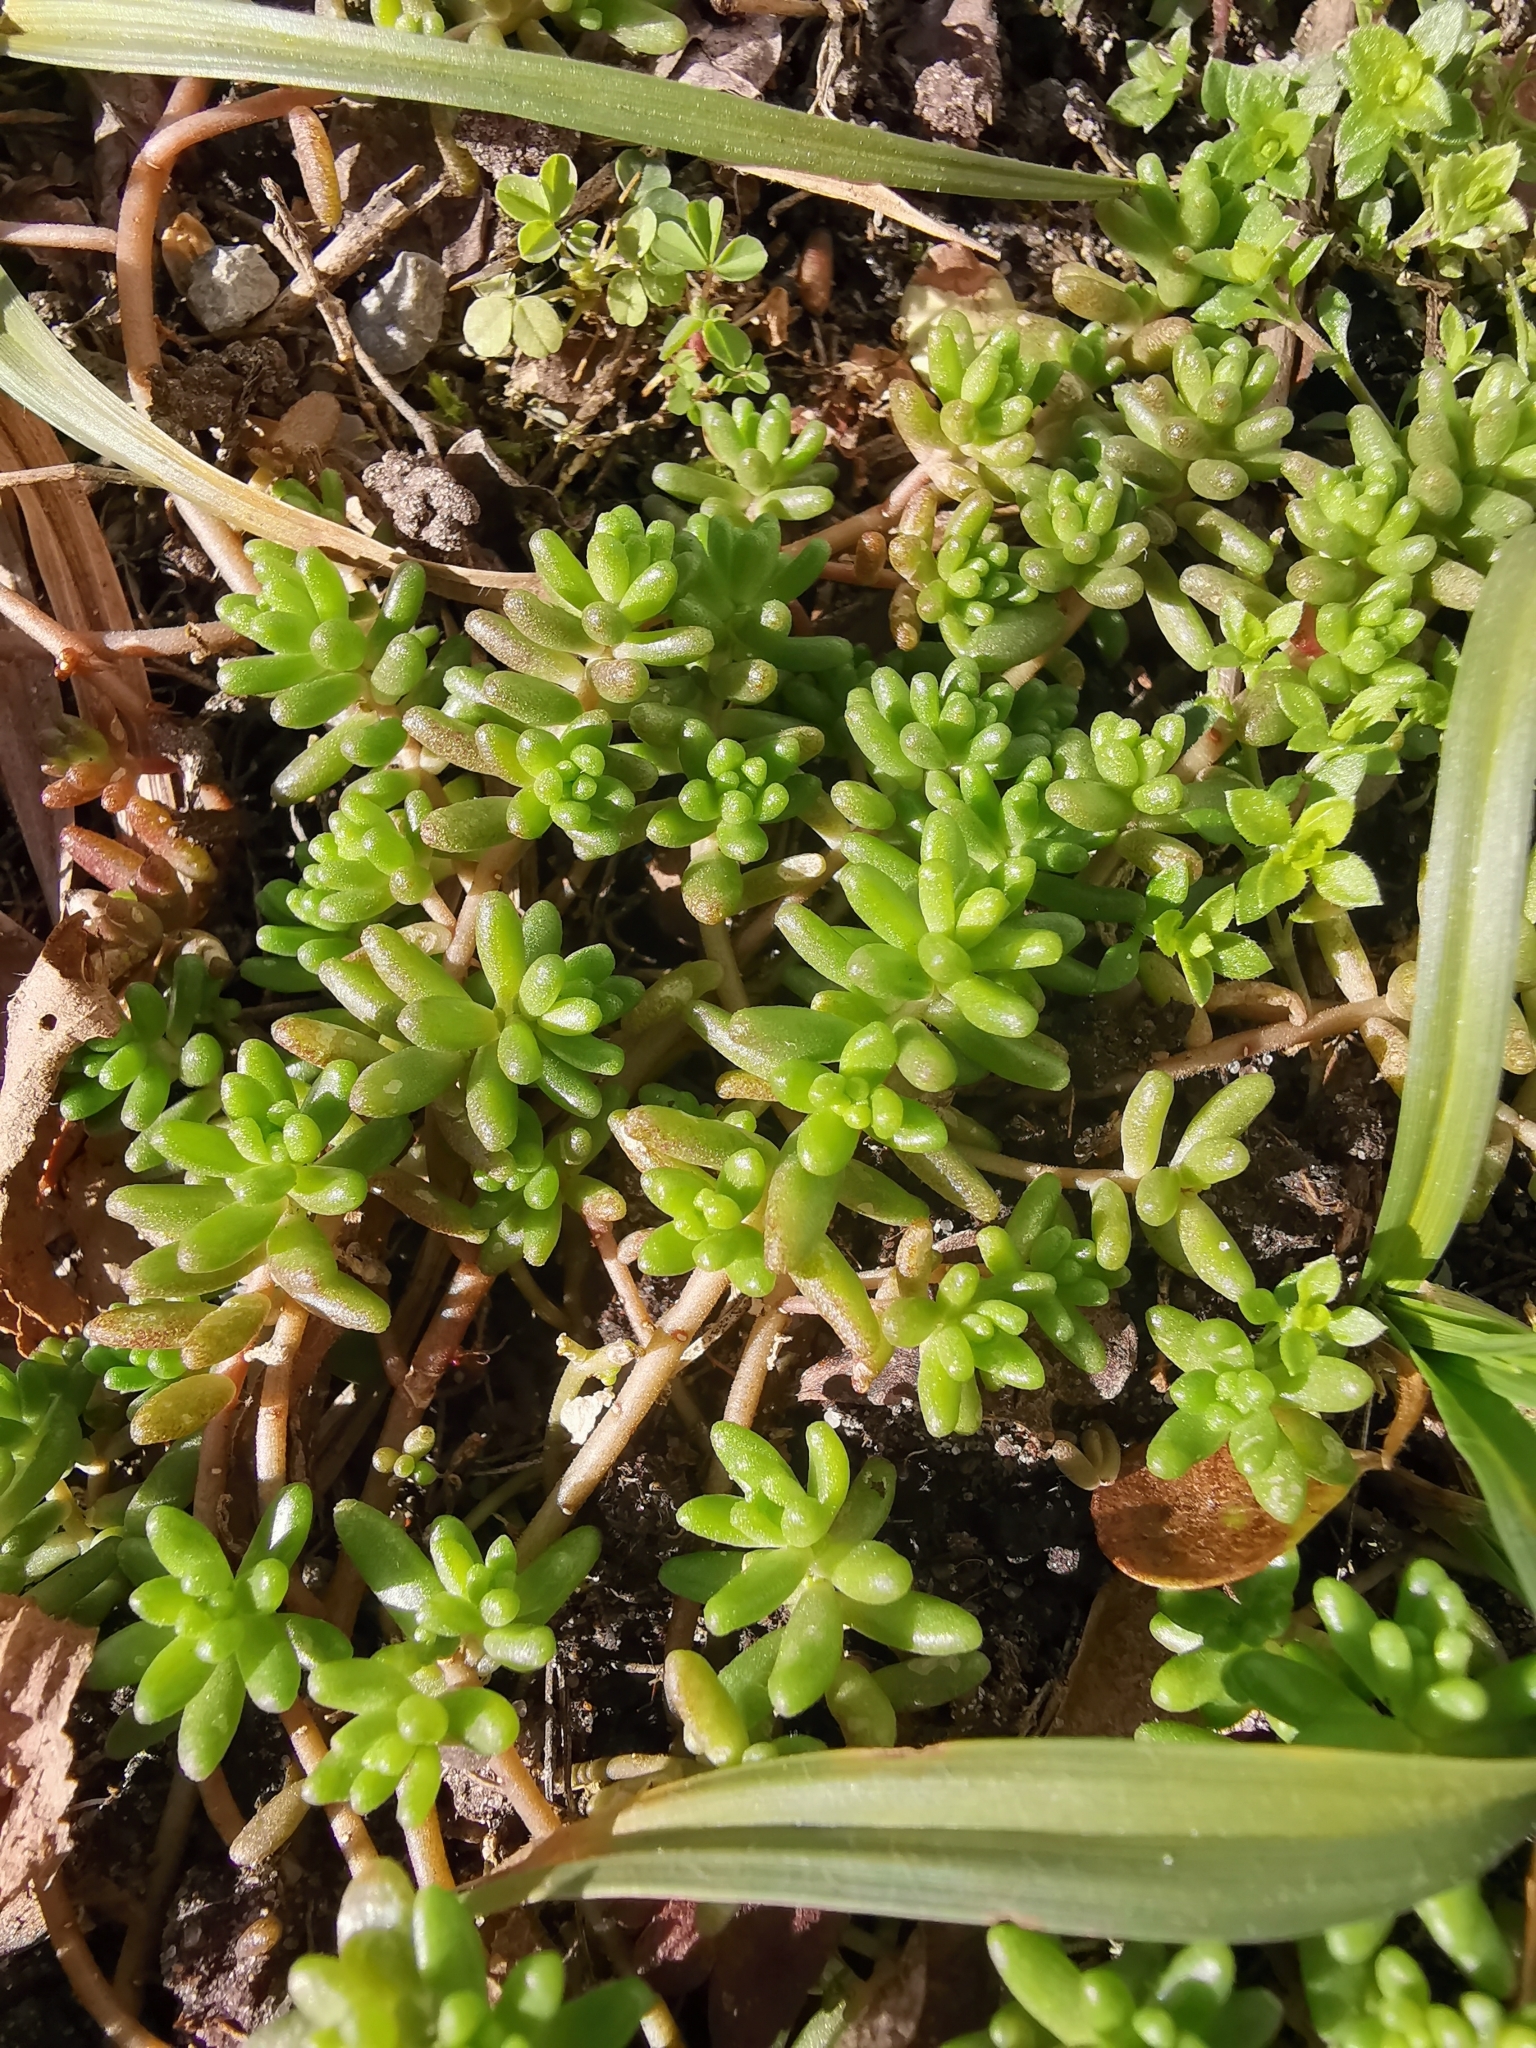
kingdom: Plantae
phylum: Tracheophyta
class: Magnoliopsida
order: Saxifragales
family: Crassulaceae
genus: Sedum
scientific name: Sedum album
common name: White stonecrop
